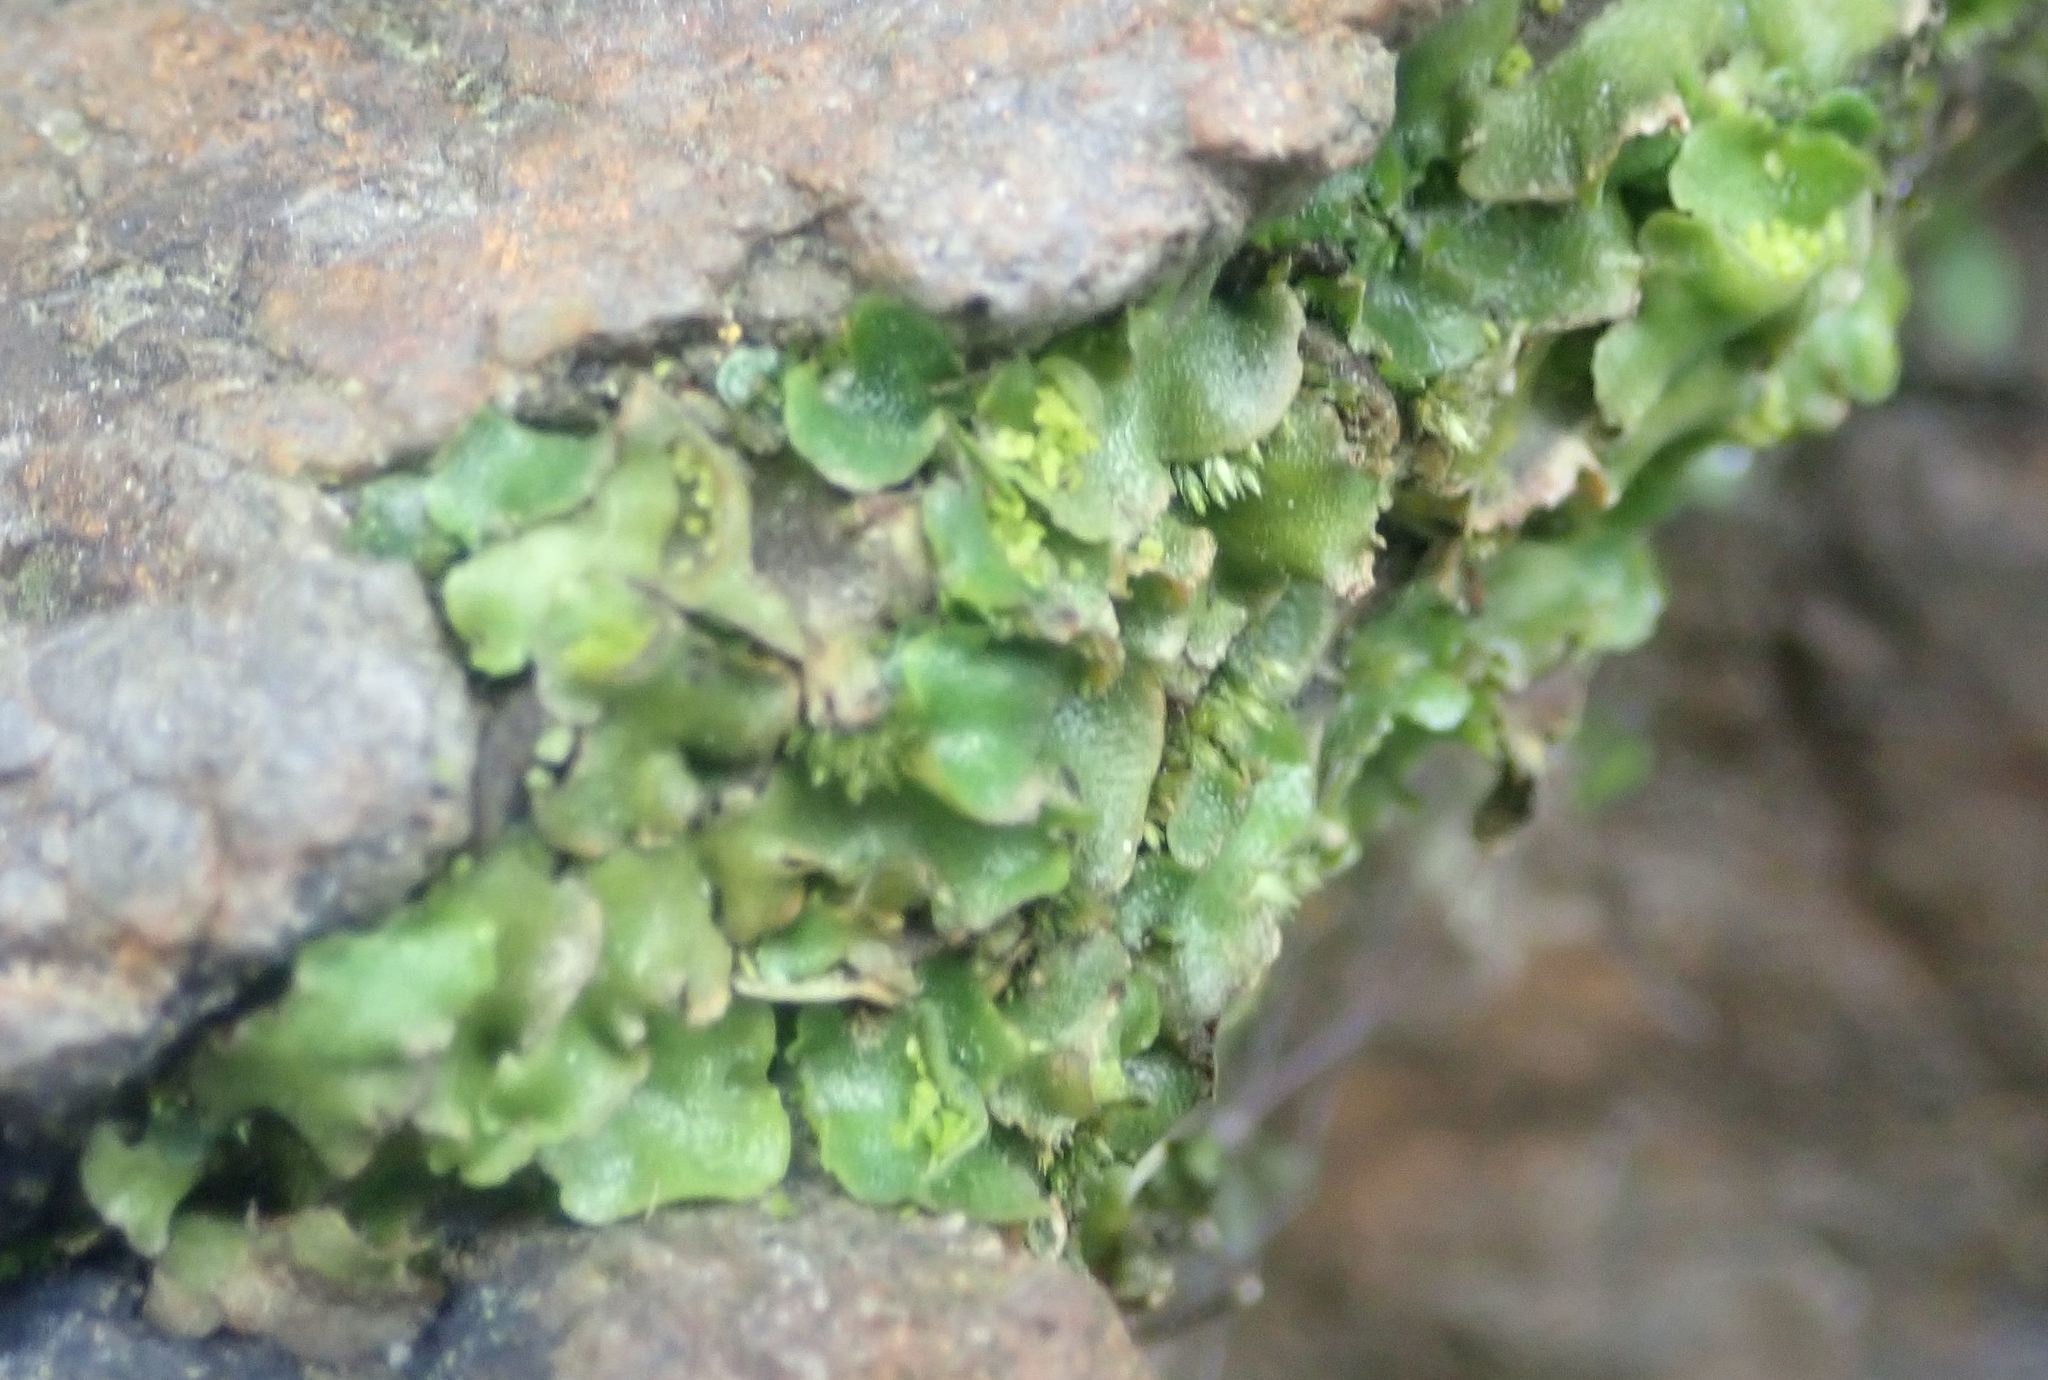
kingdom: Plantae
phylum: Marchantiophyta
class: Marchantiopsida
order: Lunulariales
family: Lunulariaceae
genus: Lunularia
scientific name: Lunularia cruciata
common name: Crescent-cup liverwort
